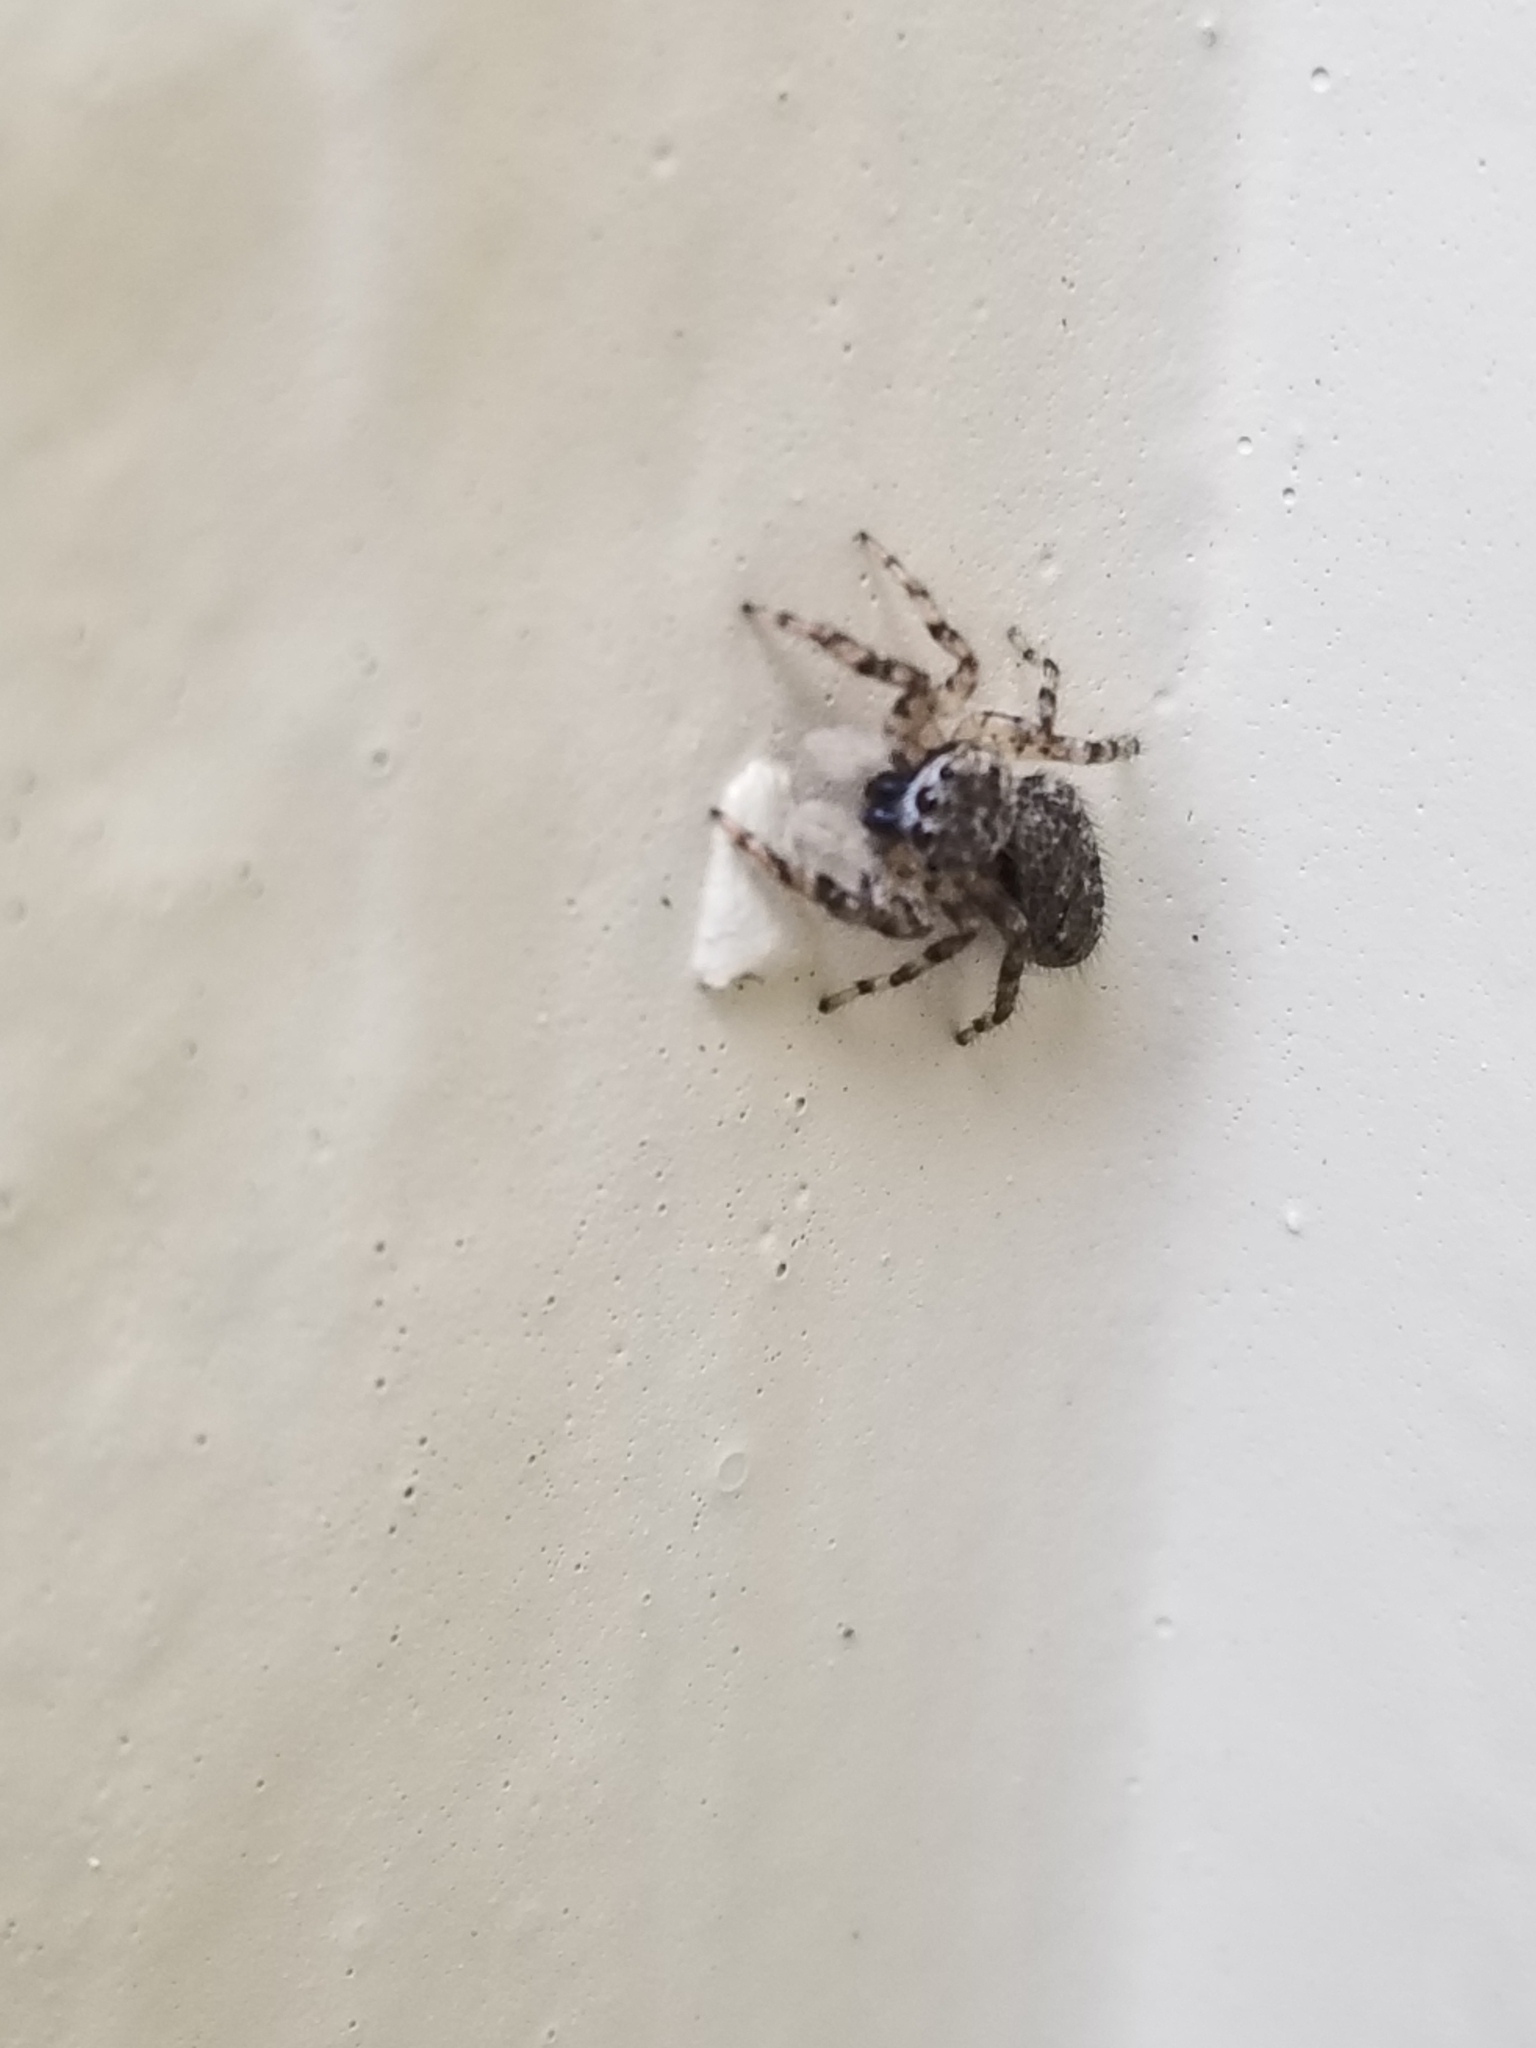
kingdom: Animalia
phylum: Arthropoda
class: Arachnida
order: Araneae
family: Salticidae
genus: Platycryptus
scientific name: Platycryptus undatus
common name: Tan jumping spider
